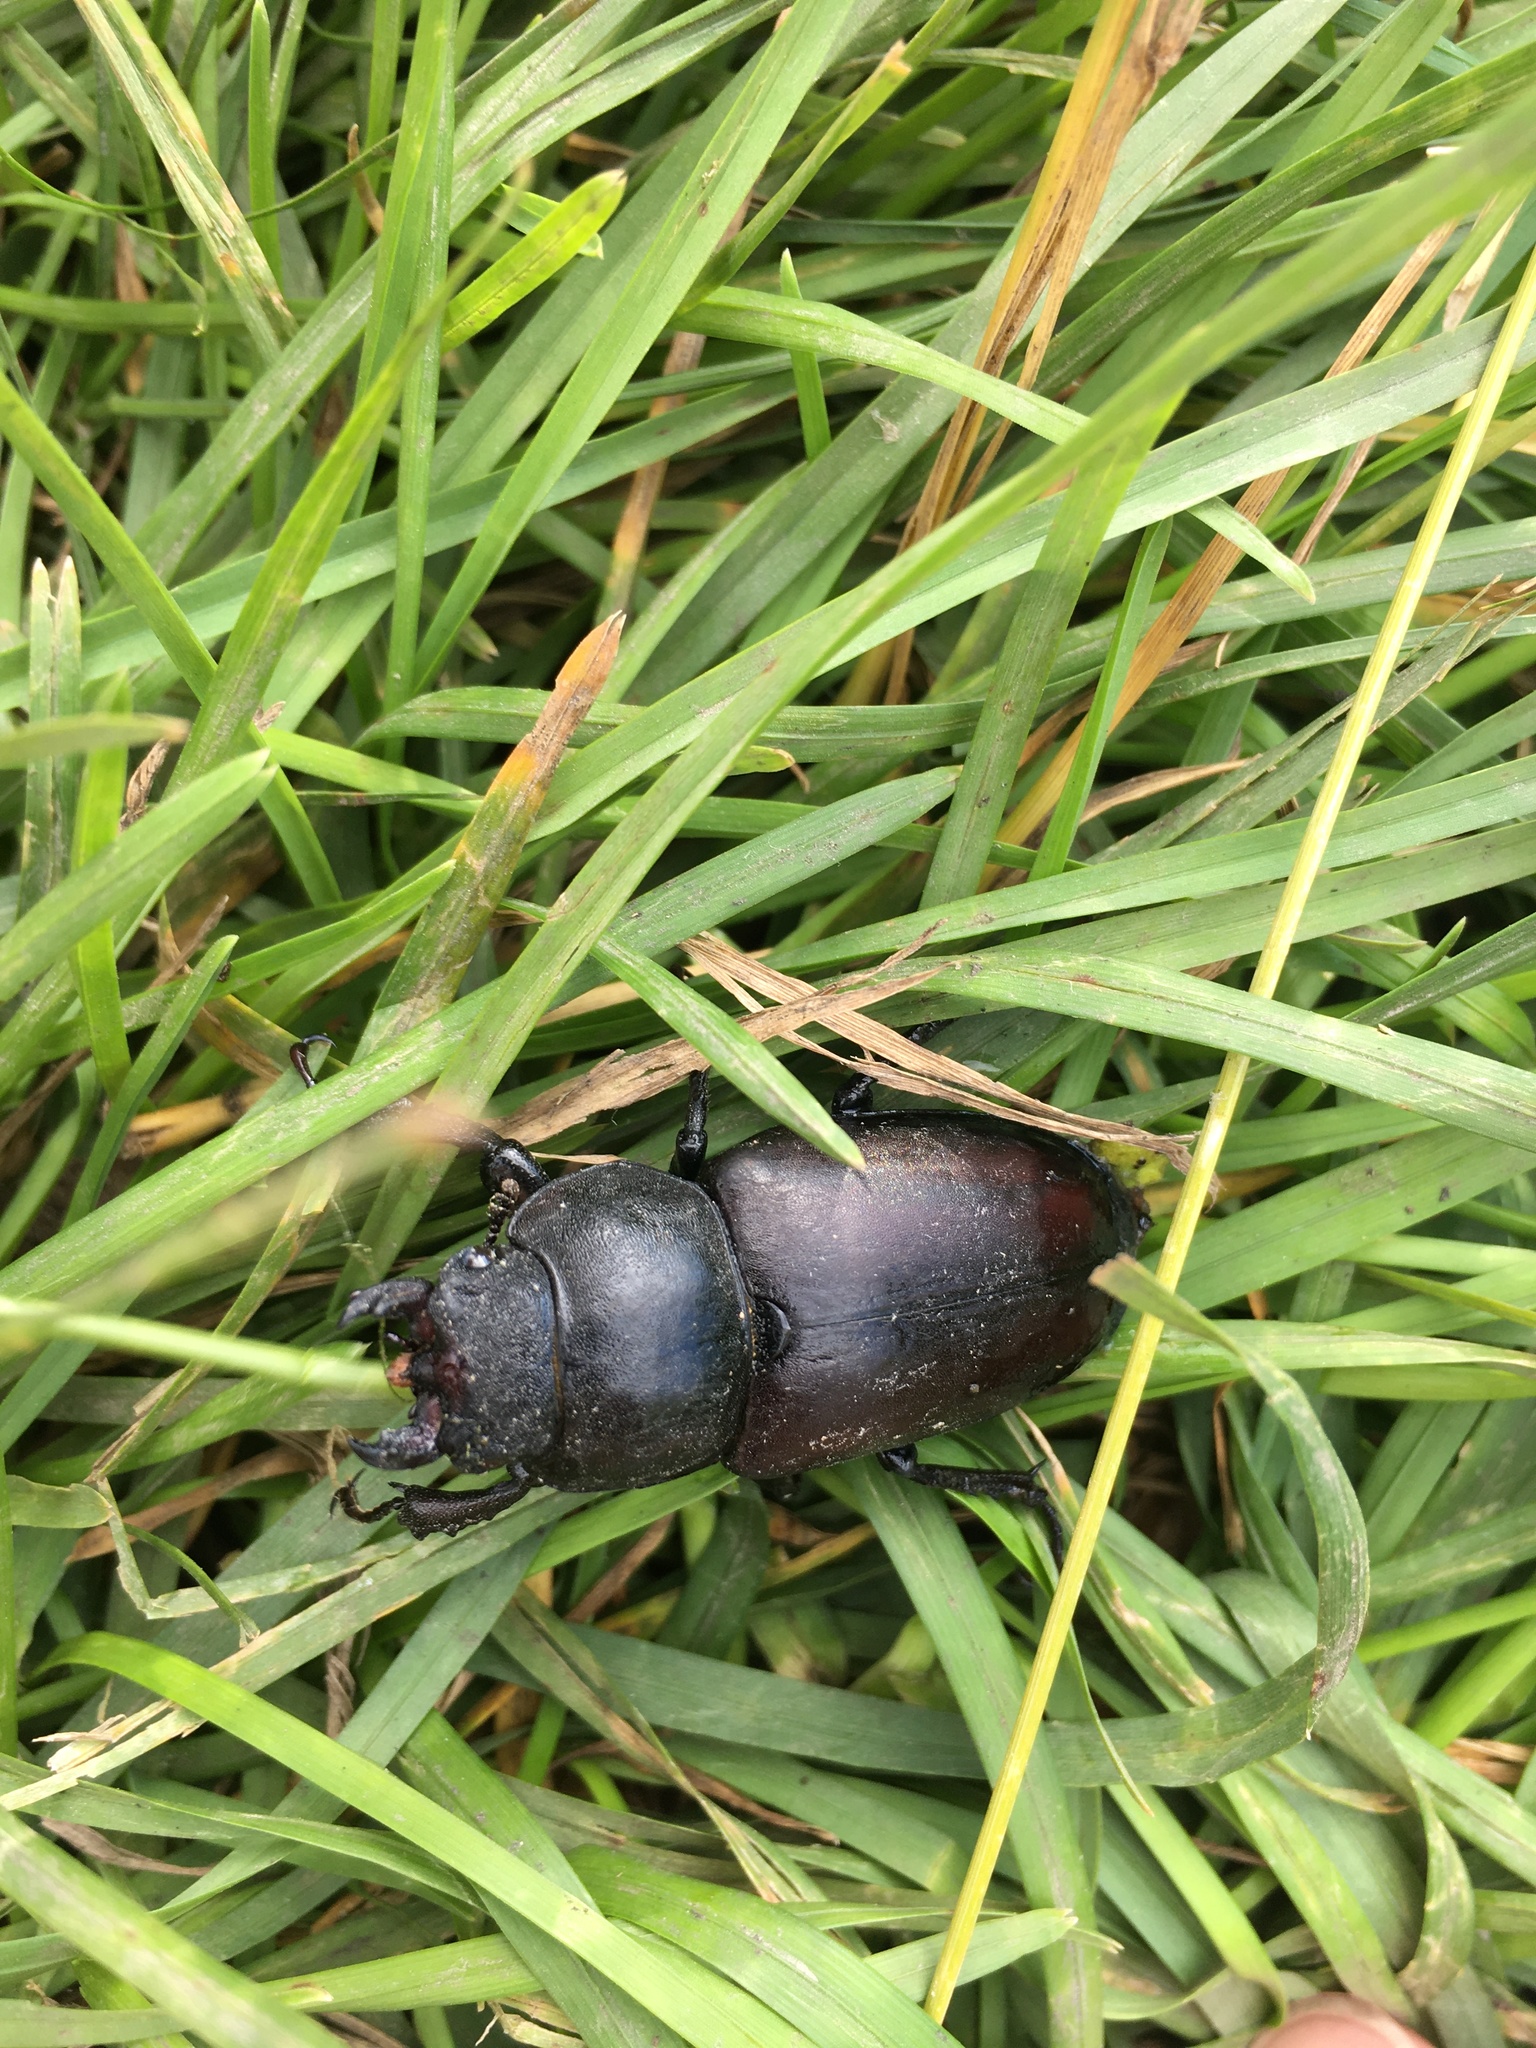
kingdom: Animalia
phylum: Arthropoda
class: Insecta
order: Coleoptera
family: Lucanidae
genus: Dorcus
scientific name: Dorcus parallelipipedus
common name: Lesser stag beetle
